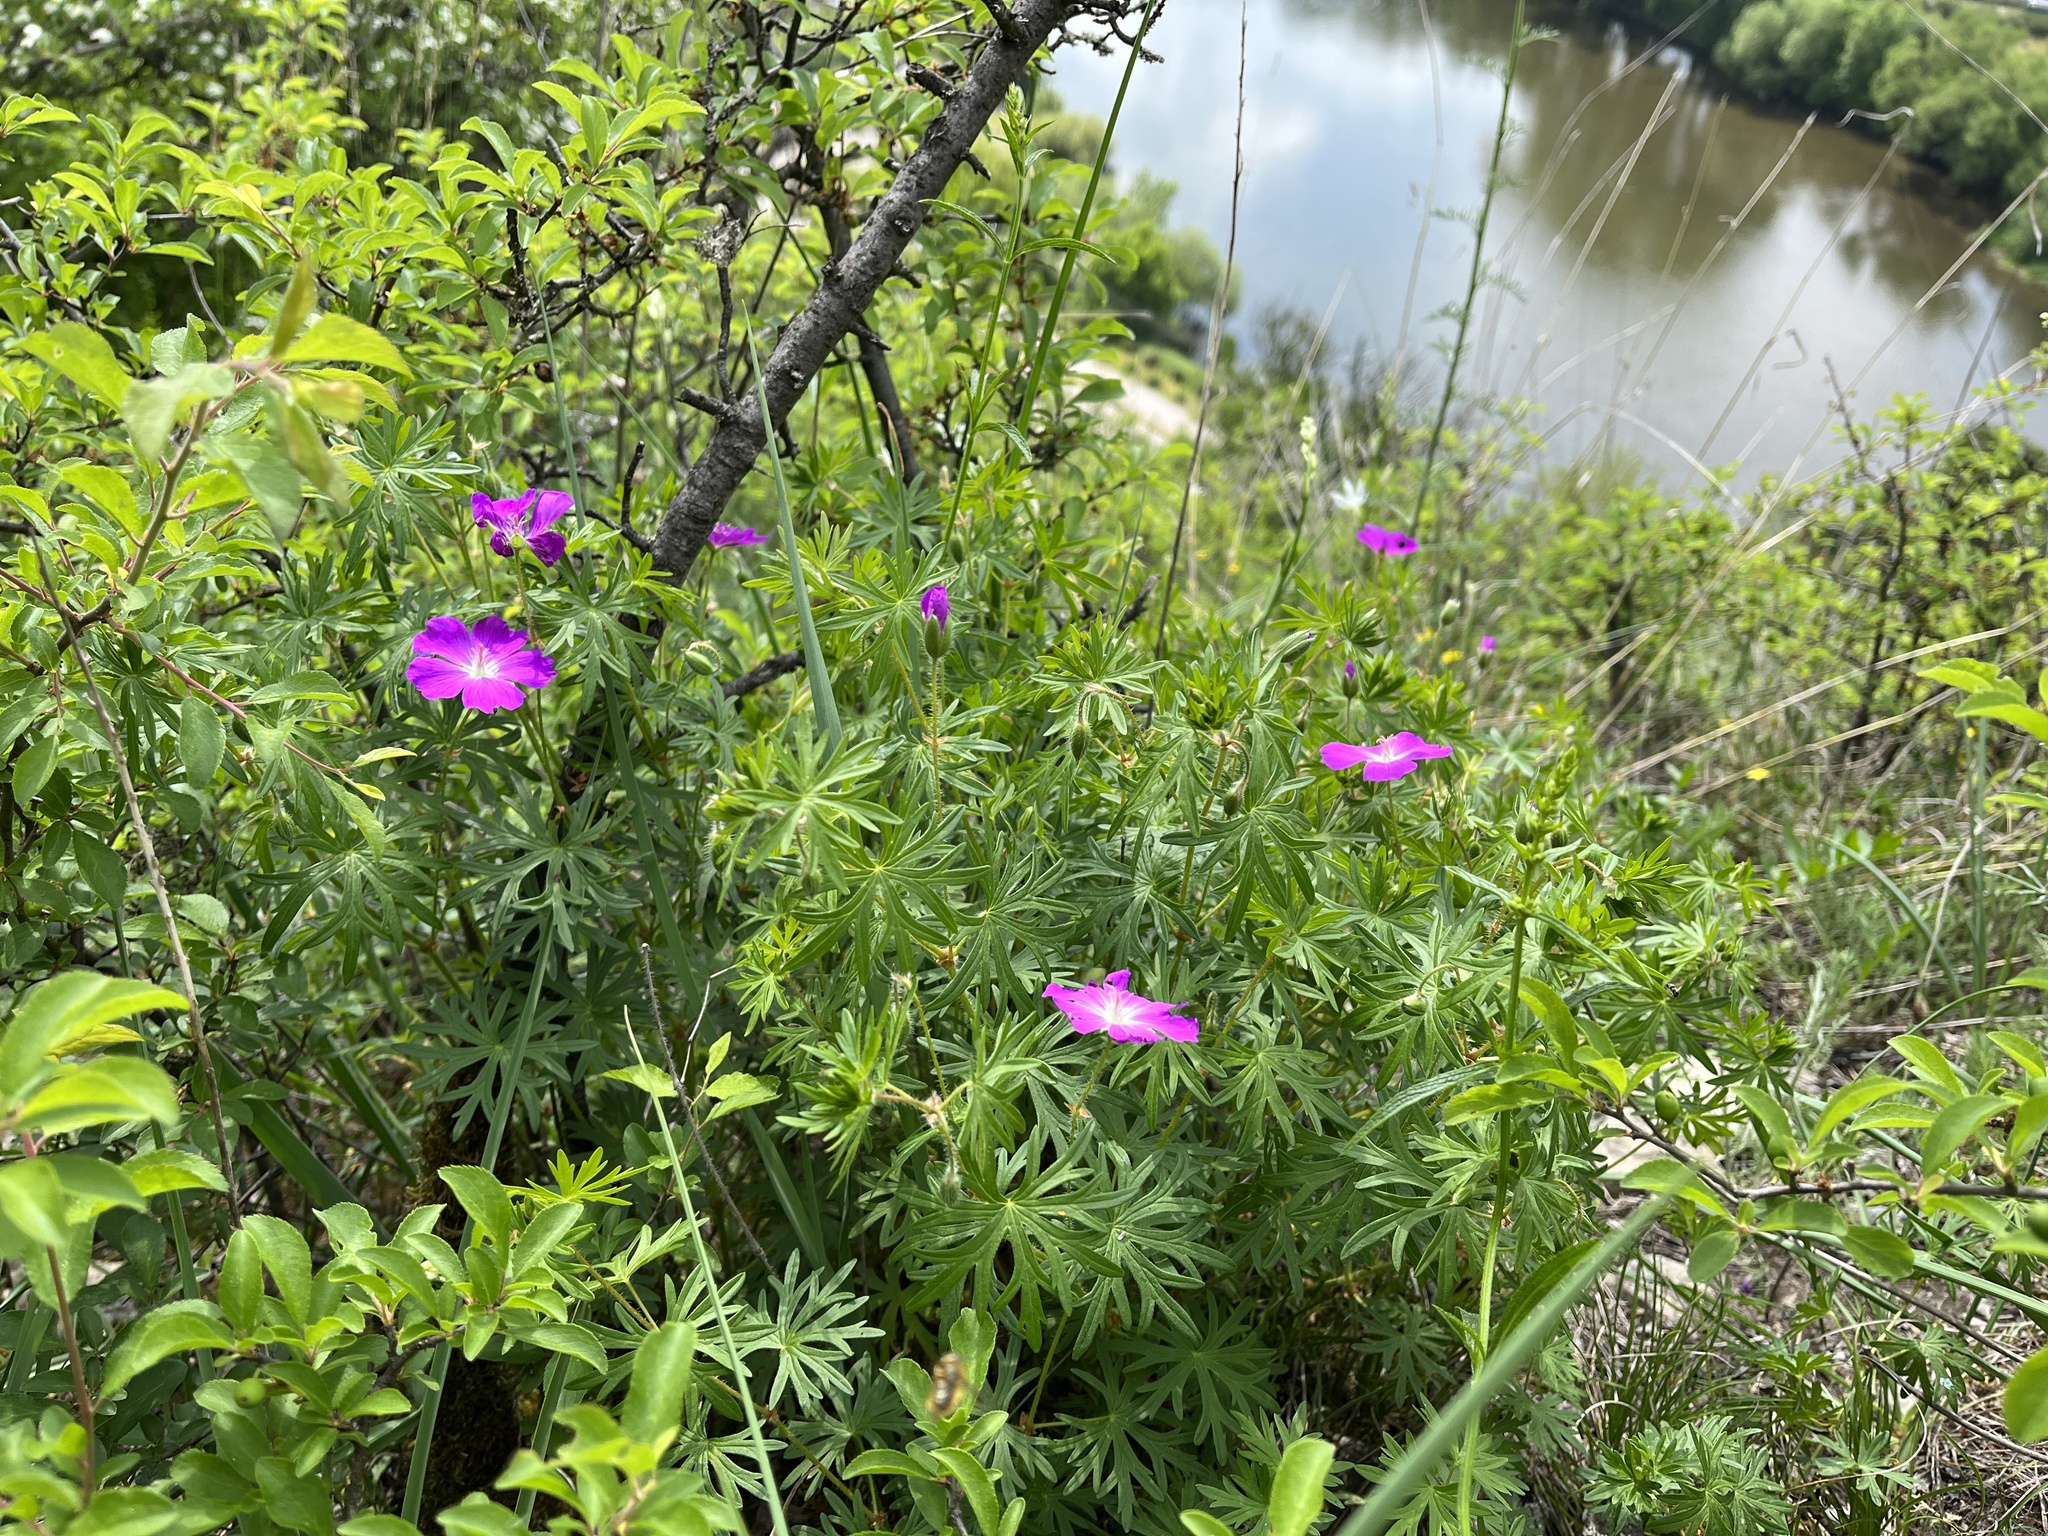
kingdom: Plantae
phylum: Tracheophyta
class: Magnoliopsida
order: Geraniales
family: Geraniaceae
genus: Geranium
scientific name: Geranium sanguineum
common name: Bloody crane's-bill
